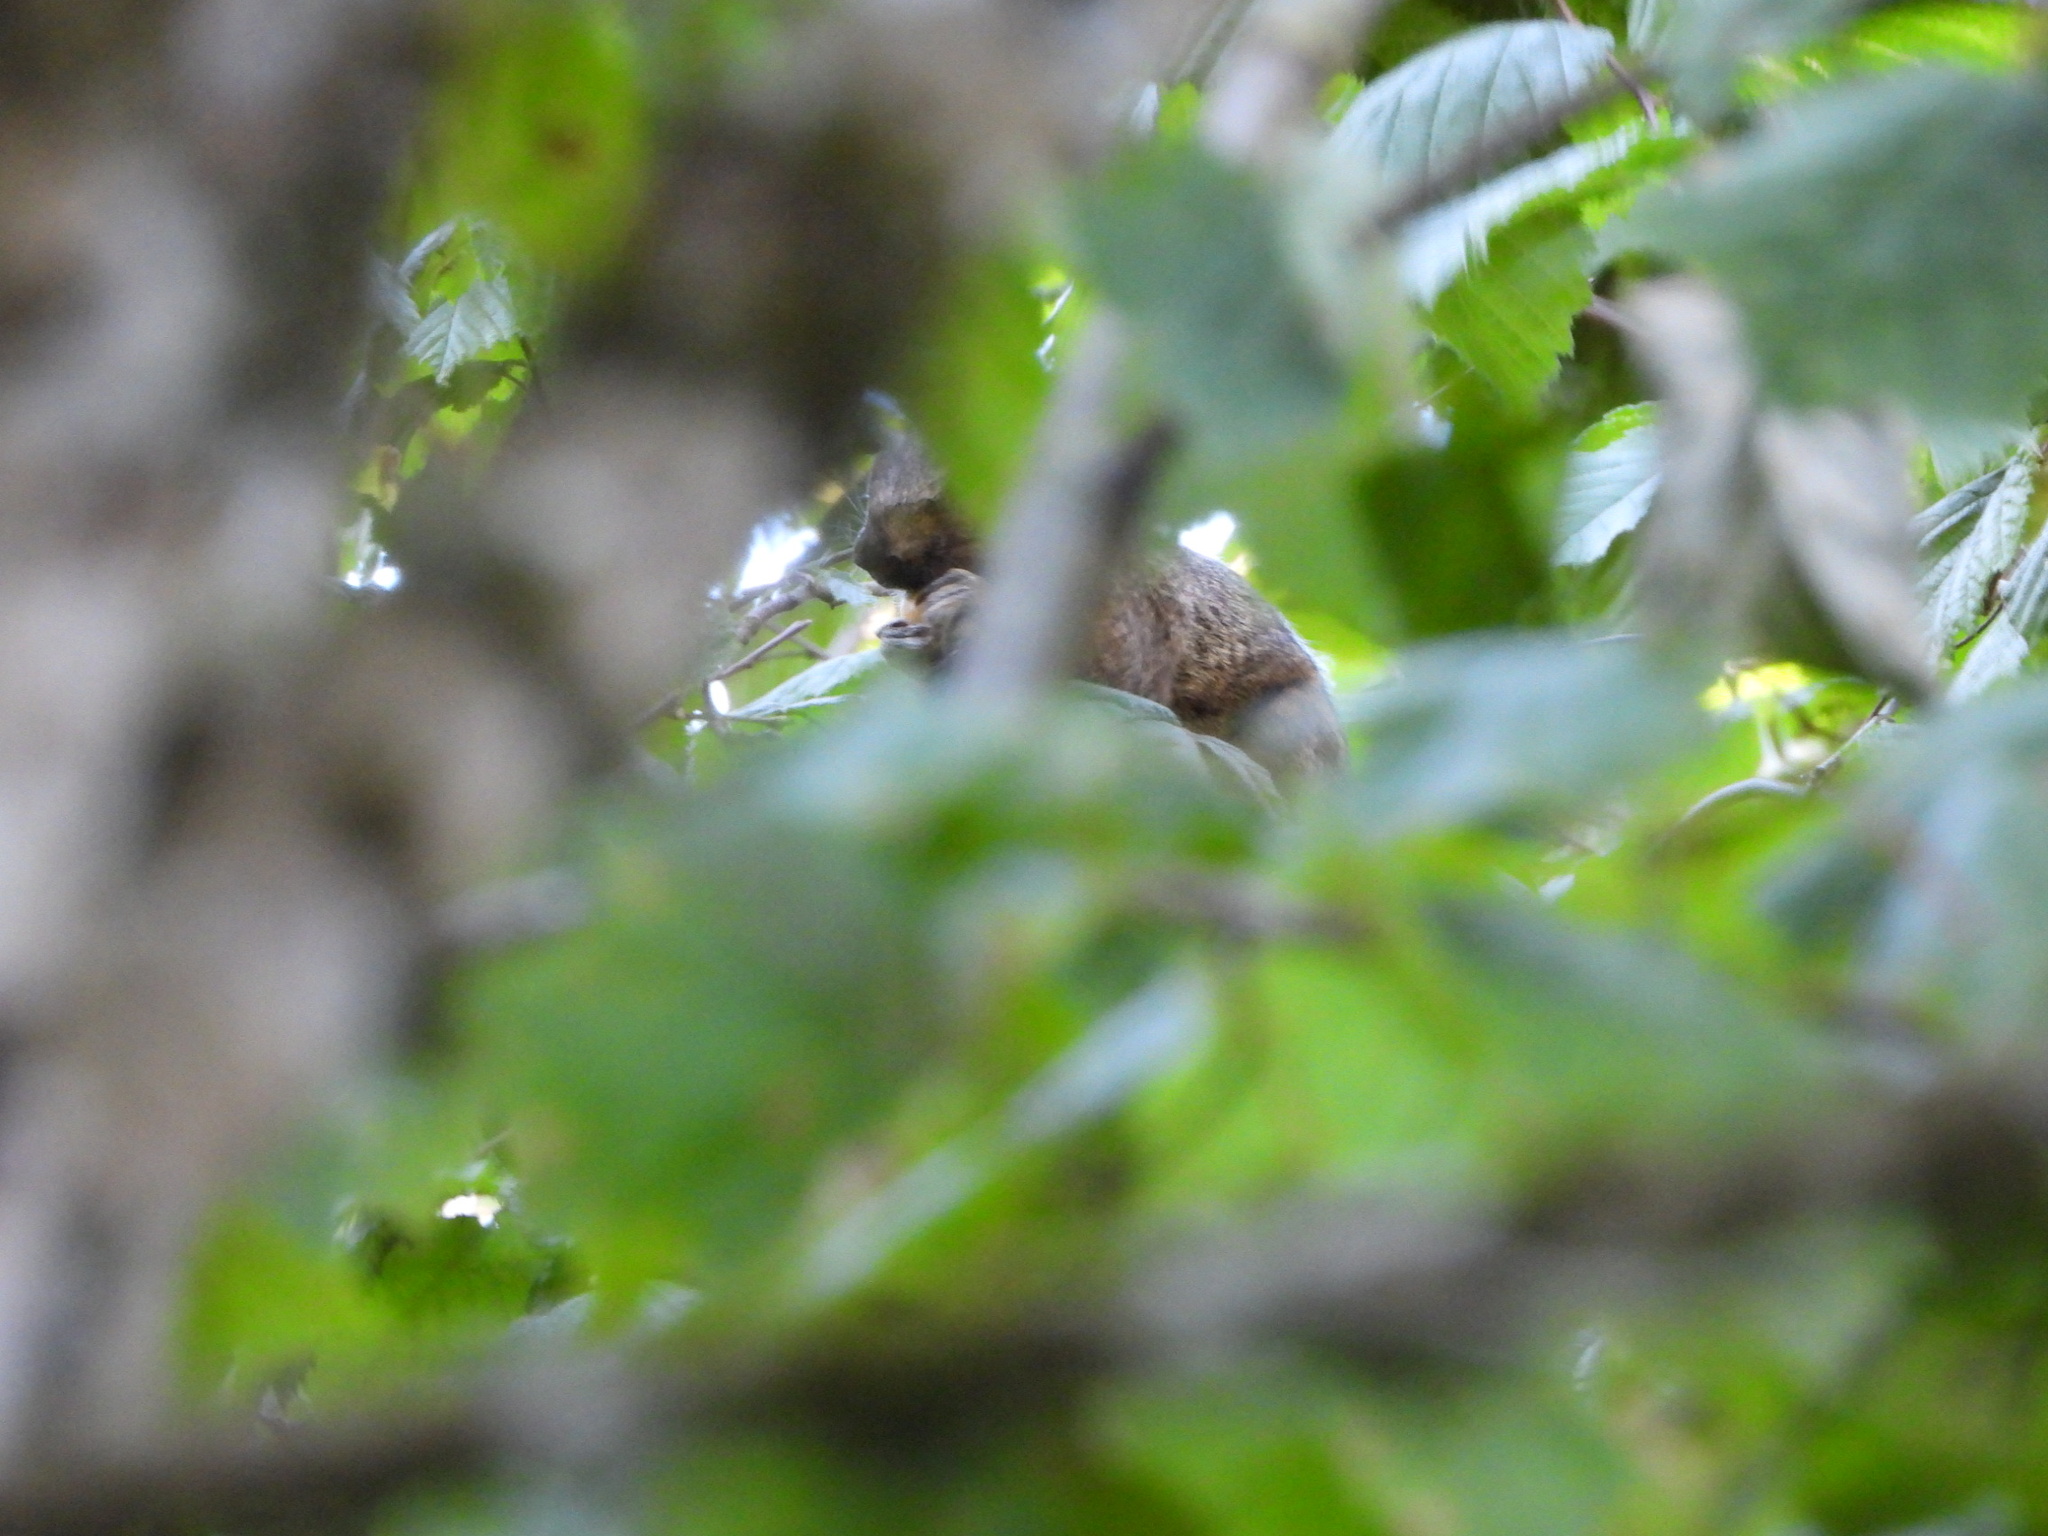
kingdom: Animalia
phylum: Chordata
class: Mammalia
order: Rodentia
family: Sciuridae
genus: Sciurus
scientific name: Sciurus carolinensis
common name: Eastern gray squirrel
